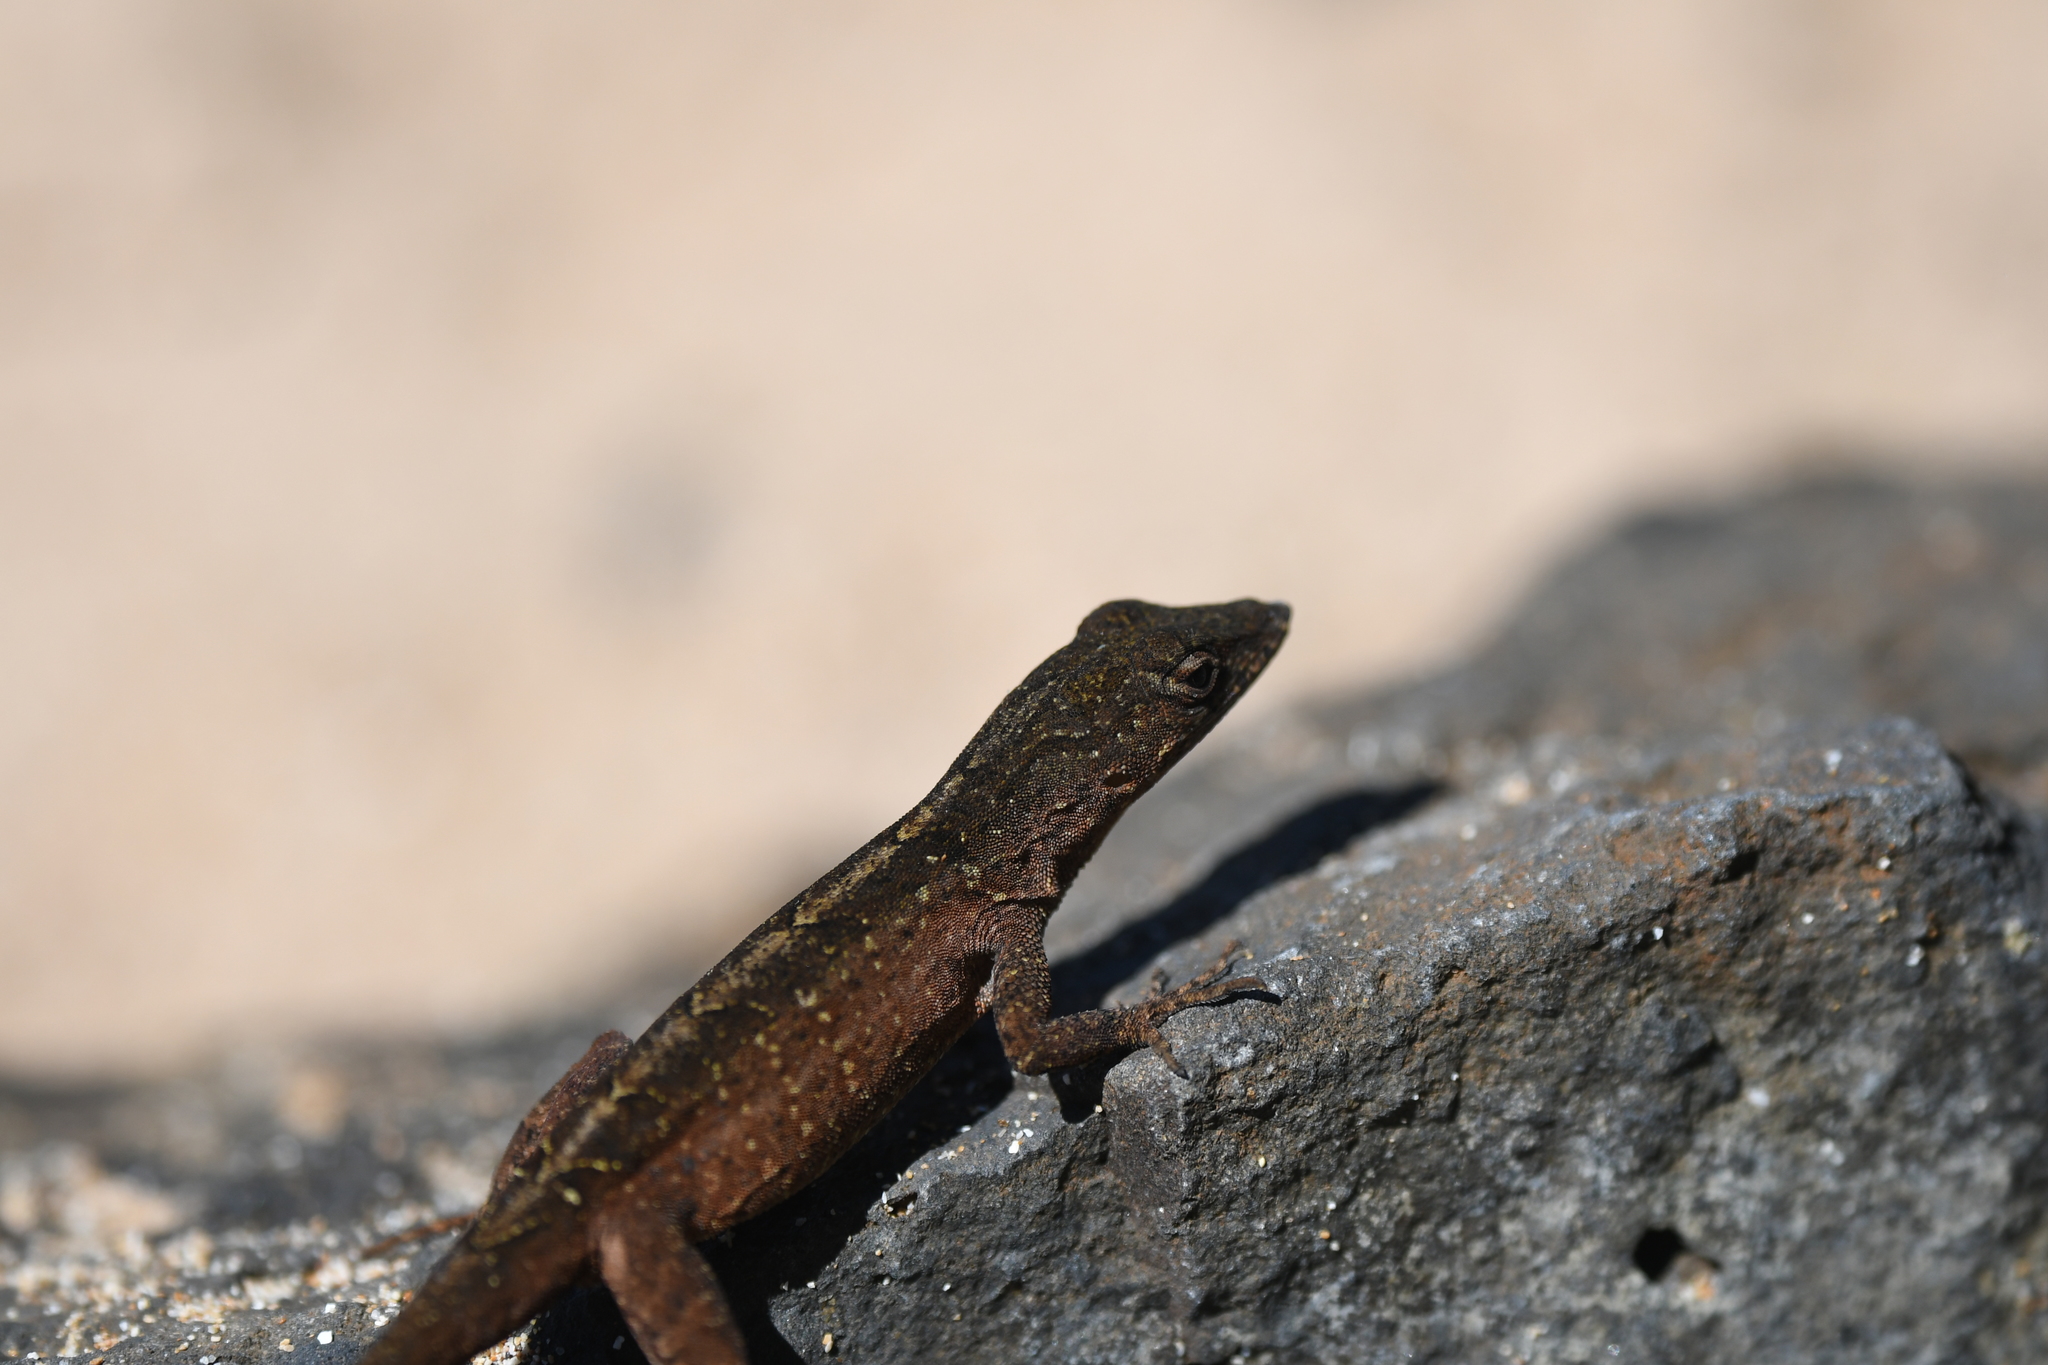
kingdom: Animalia
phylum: Chordata
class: Squamata
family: Dactyloidae
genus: Anolis
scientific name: Anolis sagrei
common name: Brown anole
